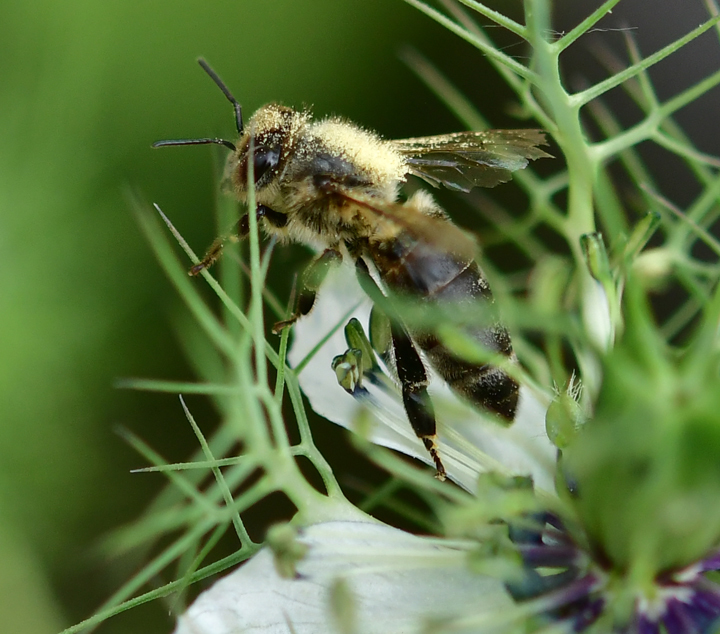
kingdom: Animalia
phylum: Arthropoda
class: Insecta
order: Hymenoptera
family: Apidae
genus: Apis
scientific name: Apis mellifera
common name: Honey bee
